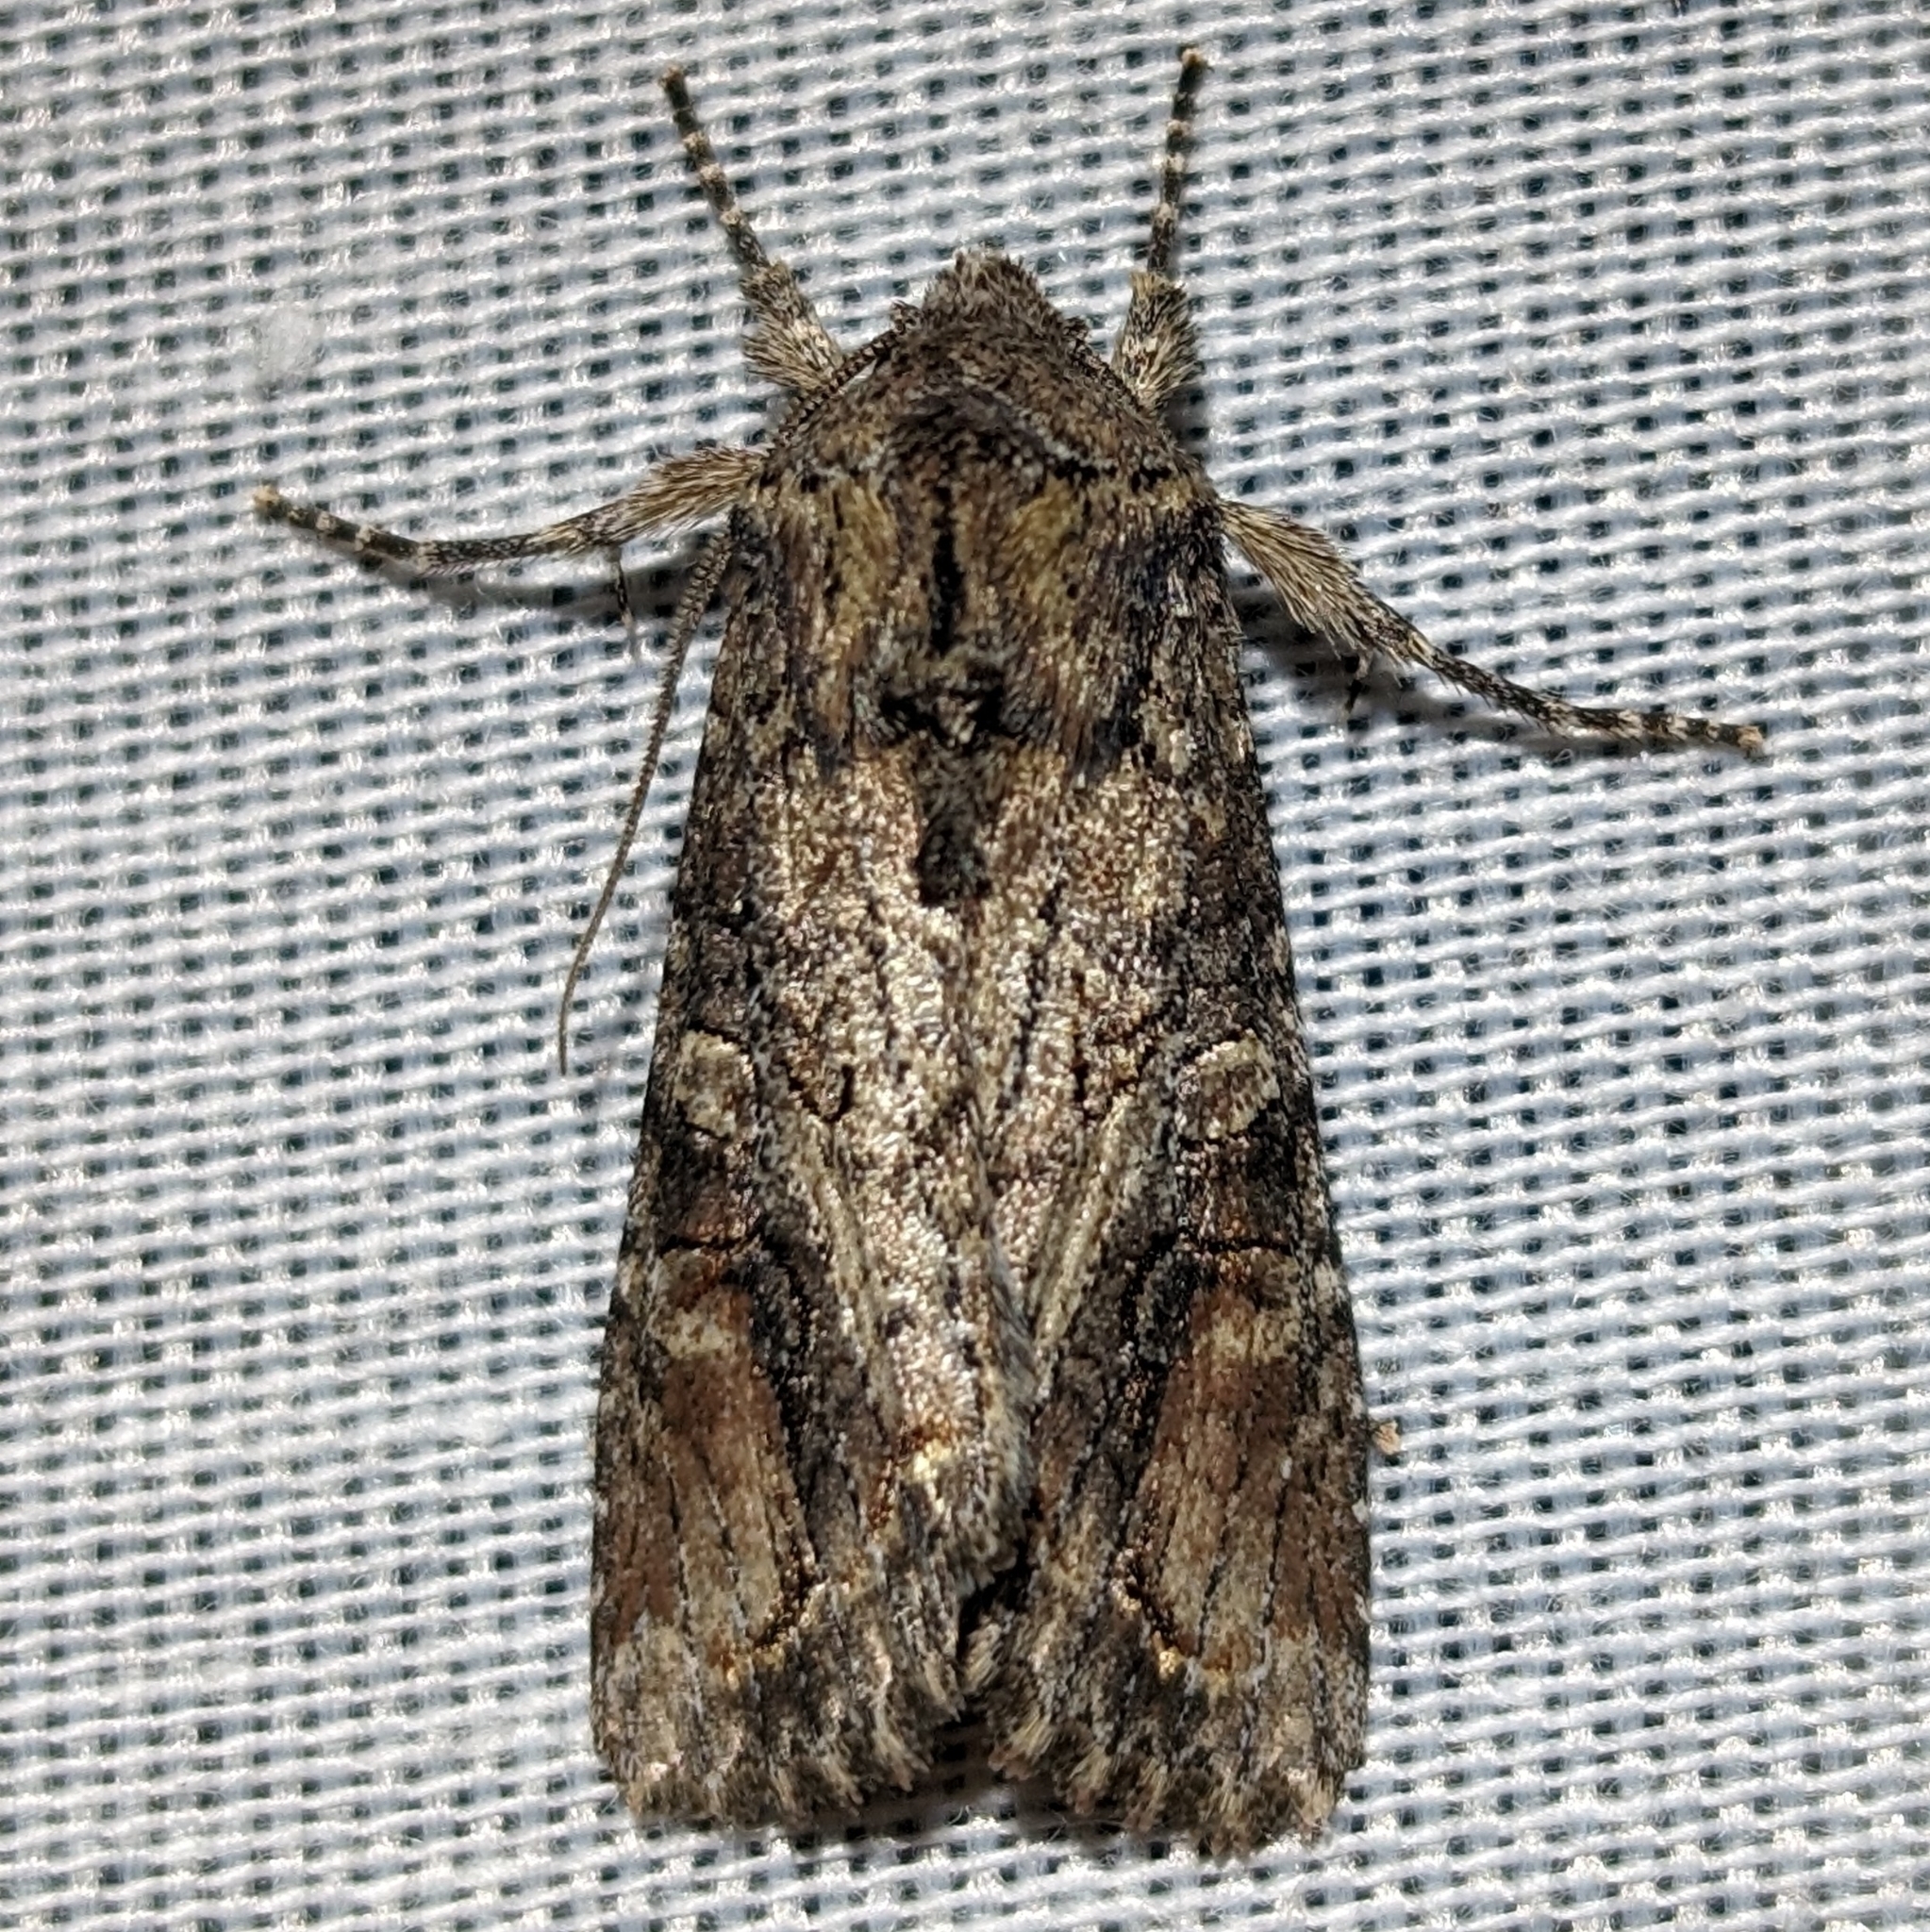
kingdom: Animalia
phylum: Arthropoda
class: Insecta
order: Lepidoptera
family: Noctuidae
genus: Egira
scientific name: Egira perlubens
